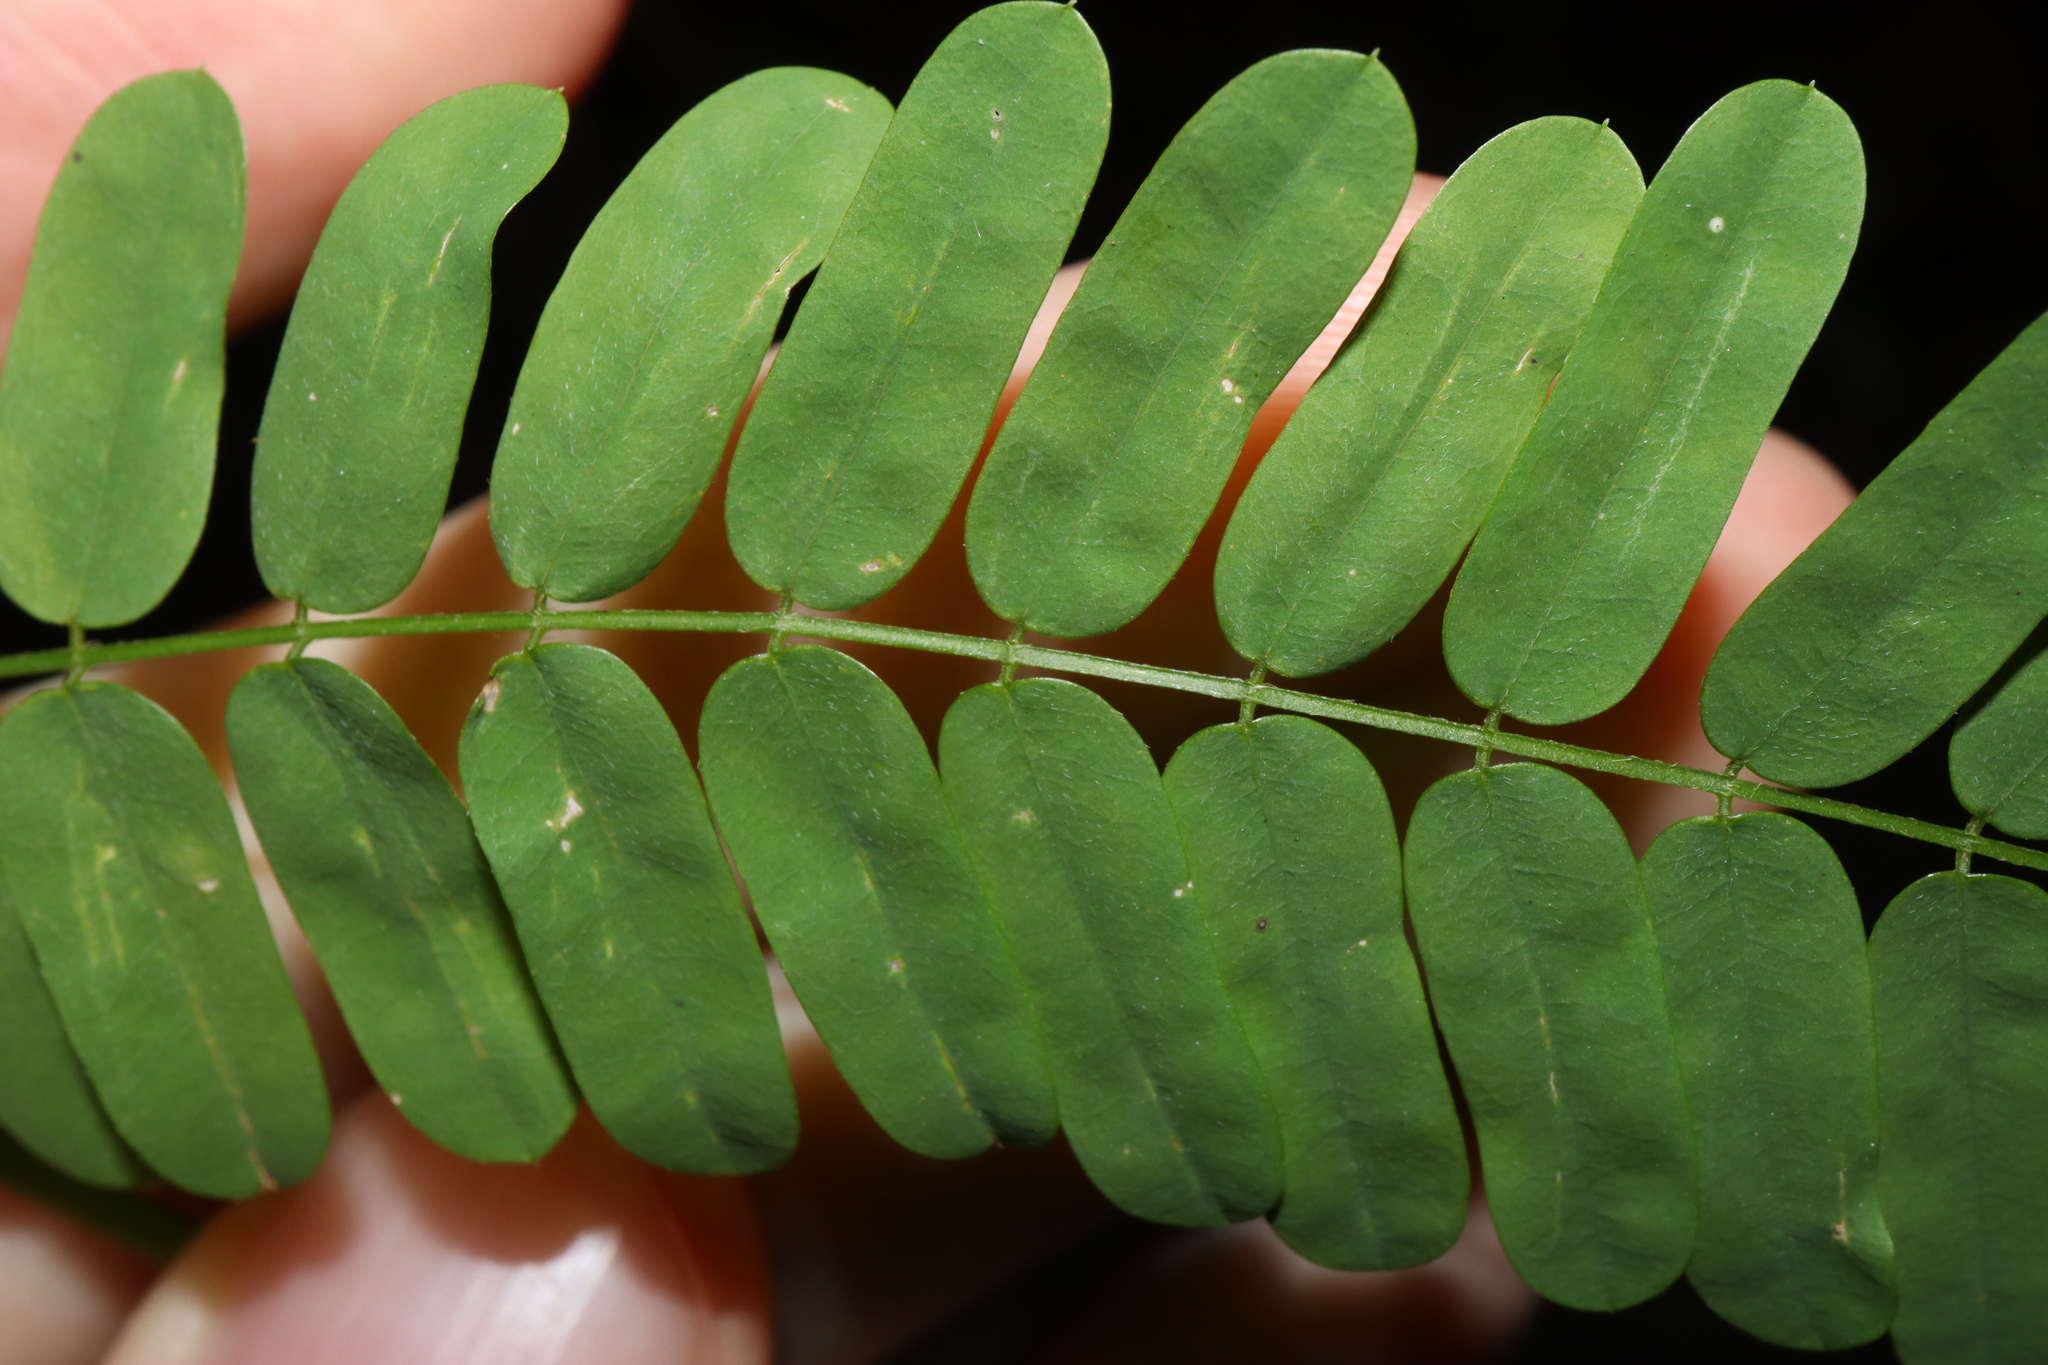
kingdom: Plantae
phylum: Tracheophyta
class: Magnoliopsida
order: Fabales
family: Fabaceae
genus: Abrus
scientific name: Abrus precatorius
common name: Rosarypea
